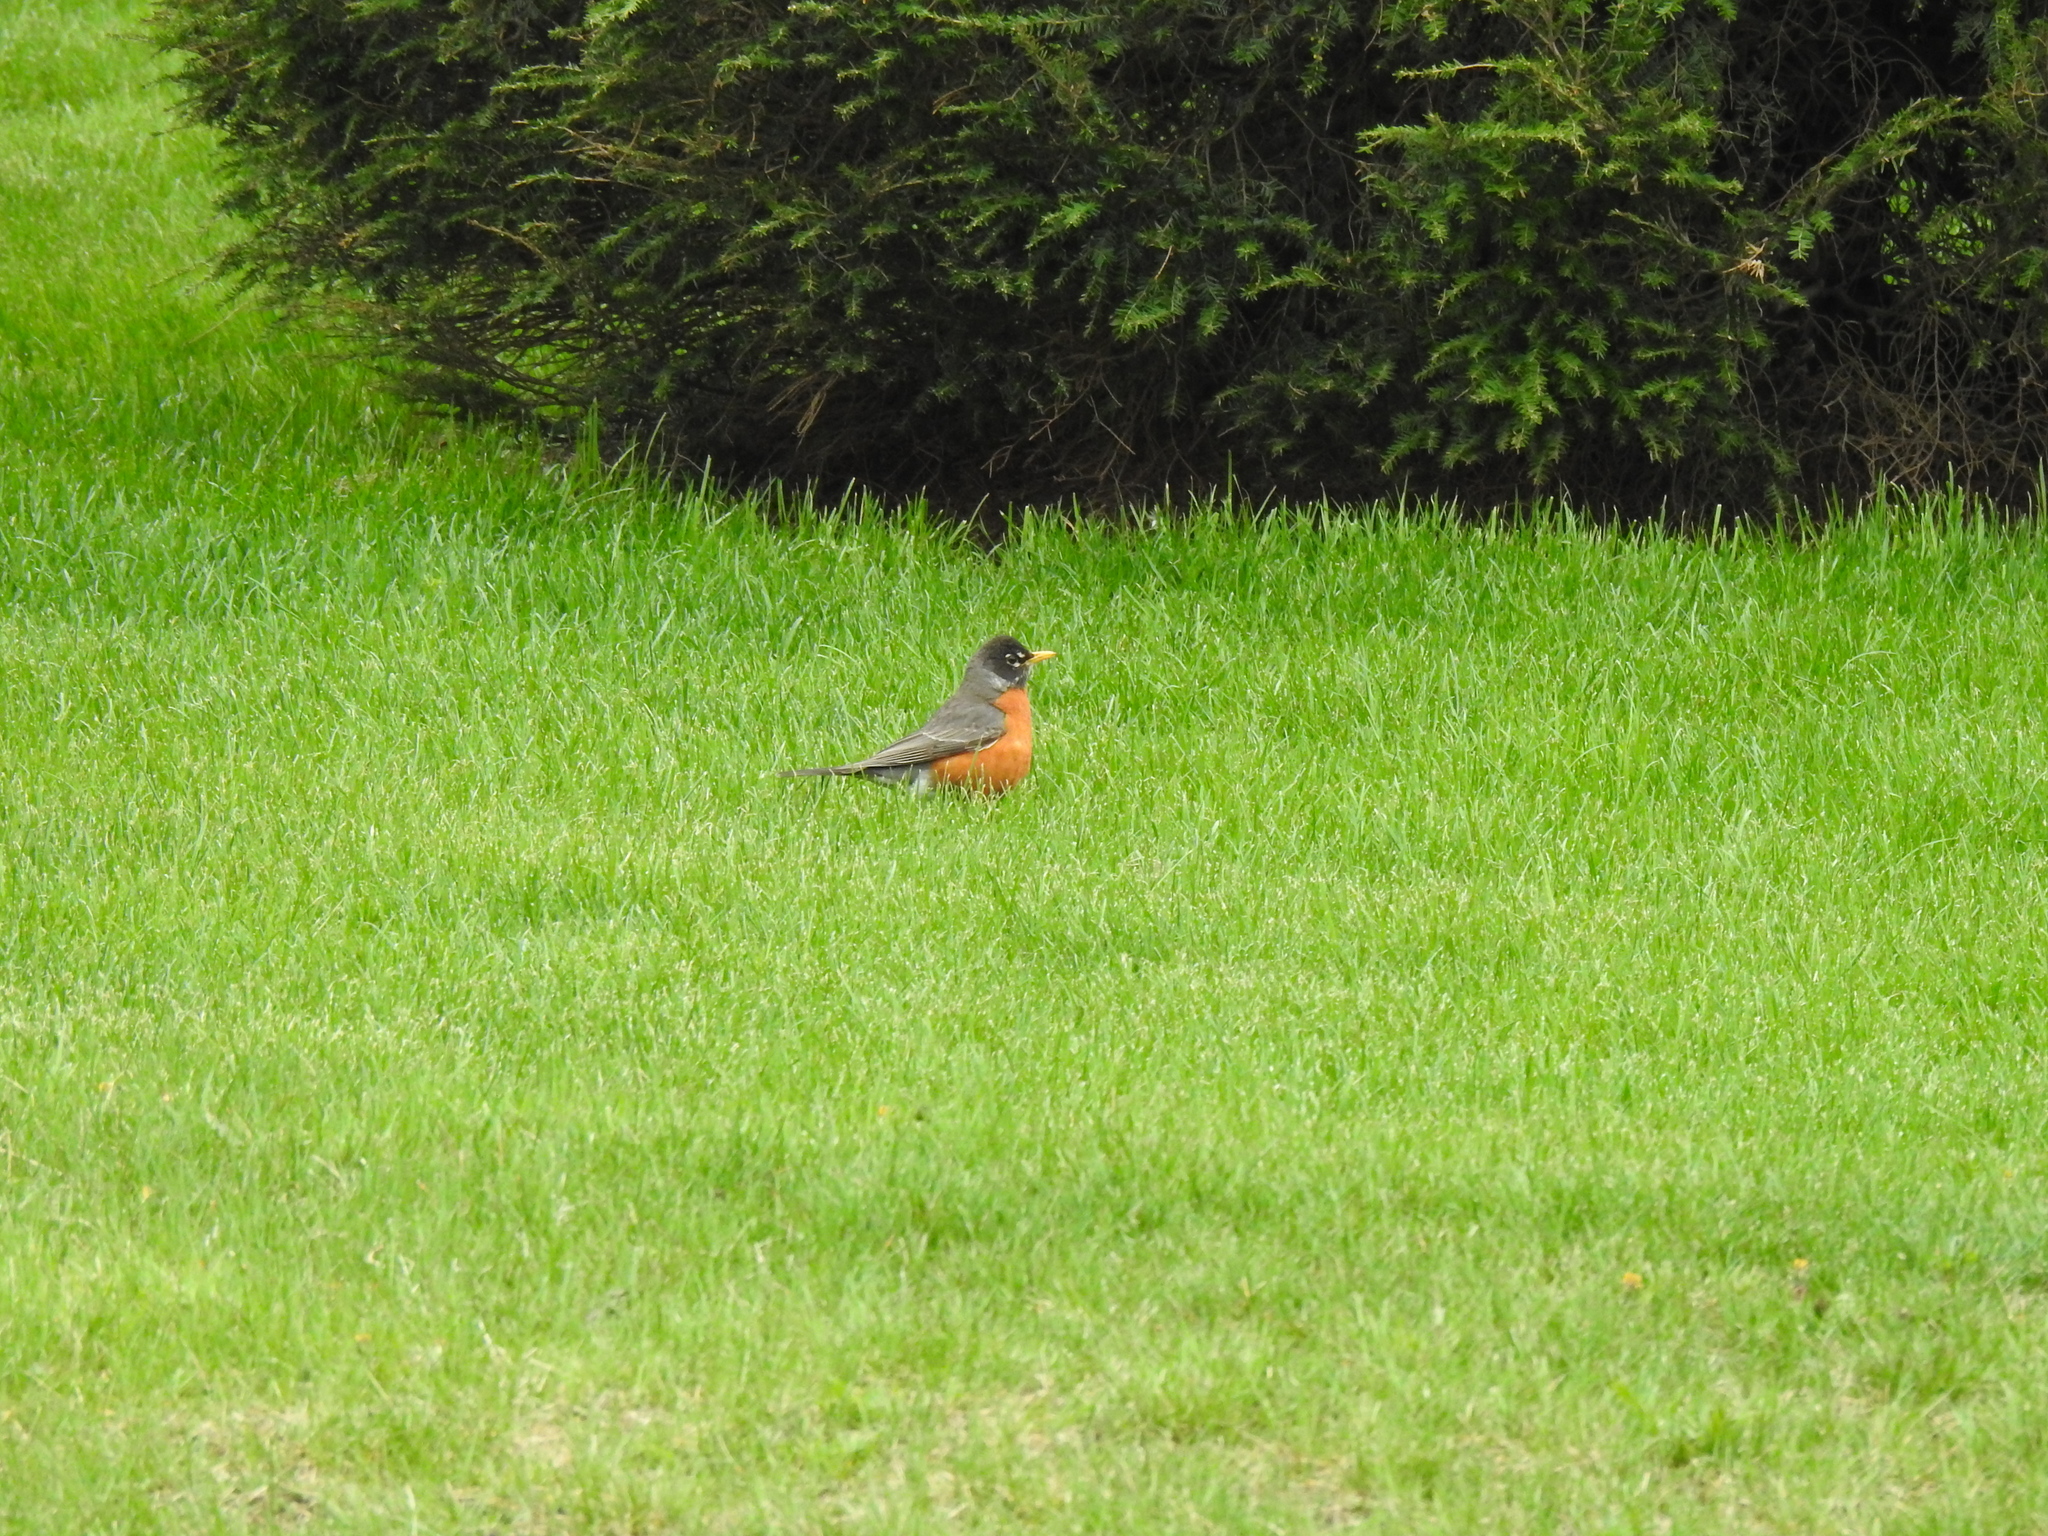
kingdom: Animalia
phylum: Chordata
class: Aves
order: Passeriformes
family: Turdidae
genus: Turdus
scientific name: Turdus migratorius
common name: American robin
